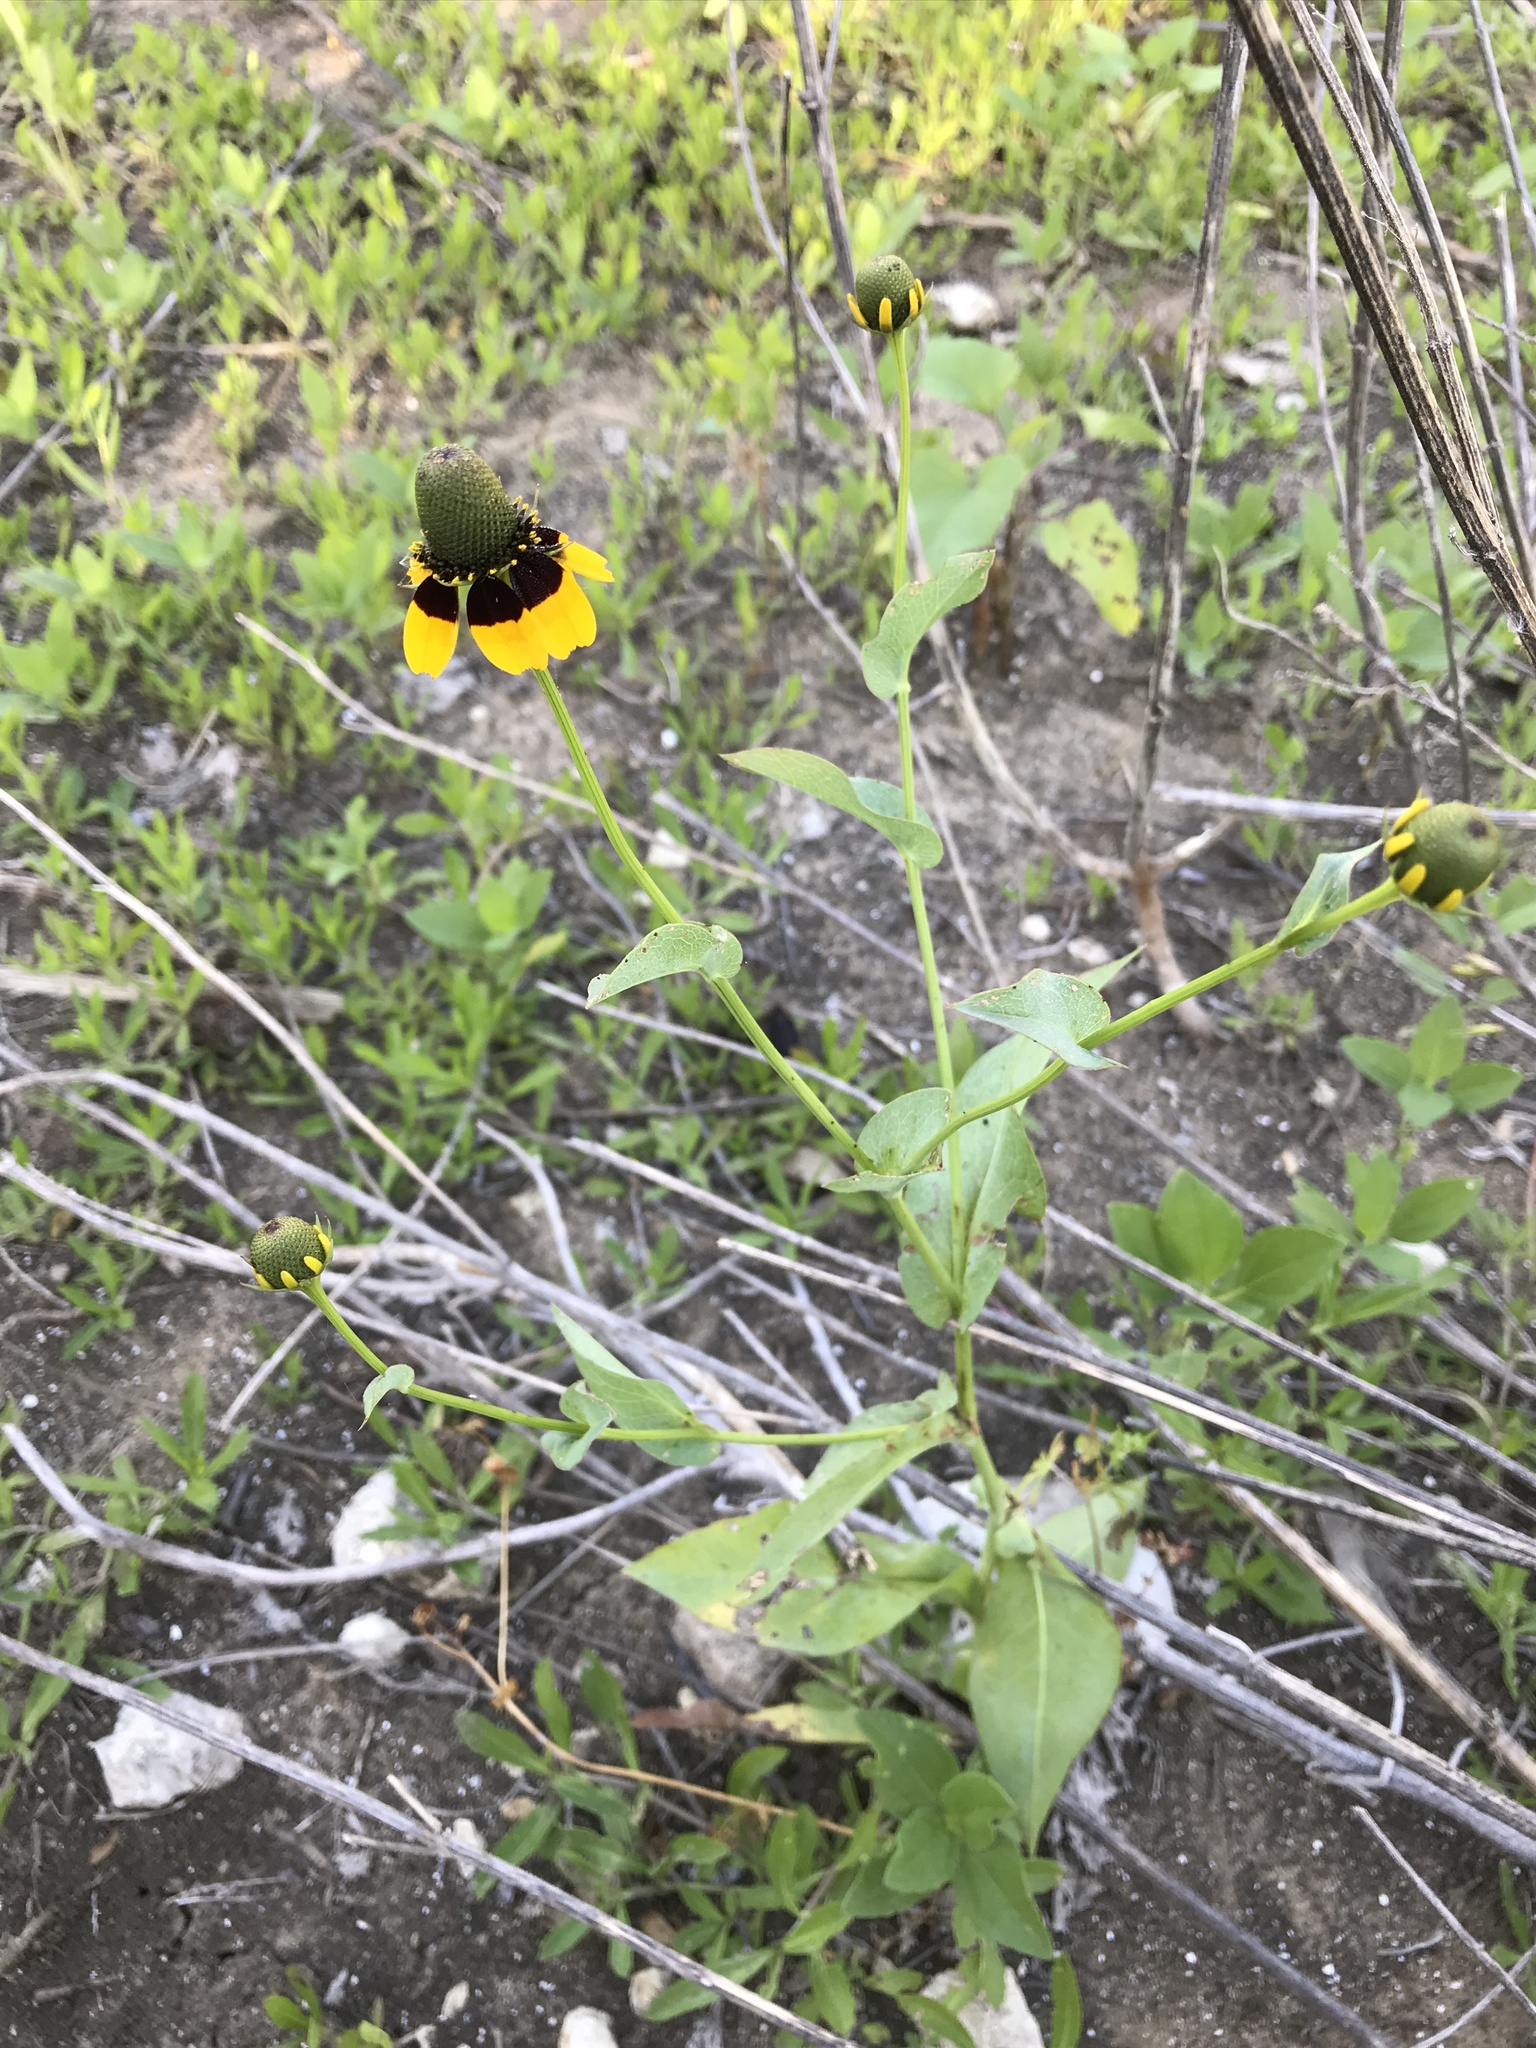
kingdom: Plantae
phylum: Tracheophyta
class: Magnoliopsida
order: Asterales
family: Asteraceae
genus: Rudbeckia
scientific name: Rudbeckia amplexicaulis
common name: Clasping-leaf coneflower
